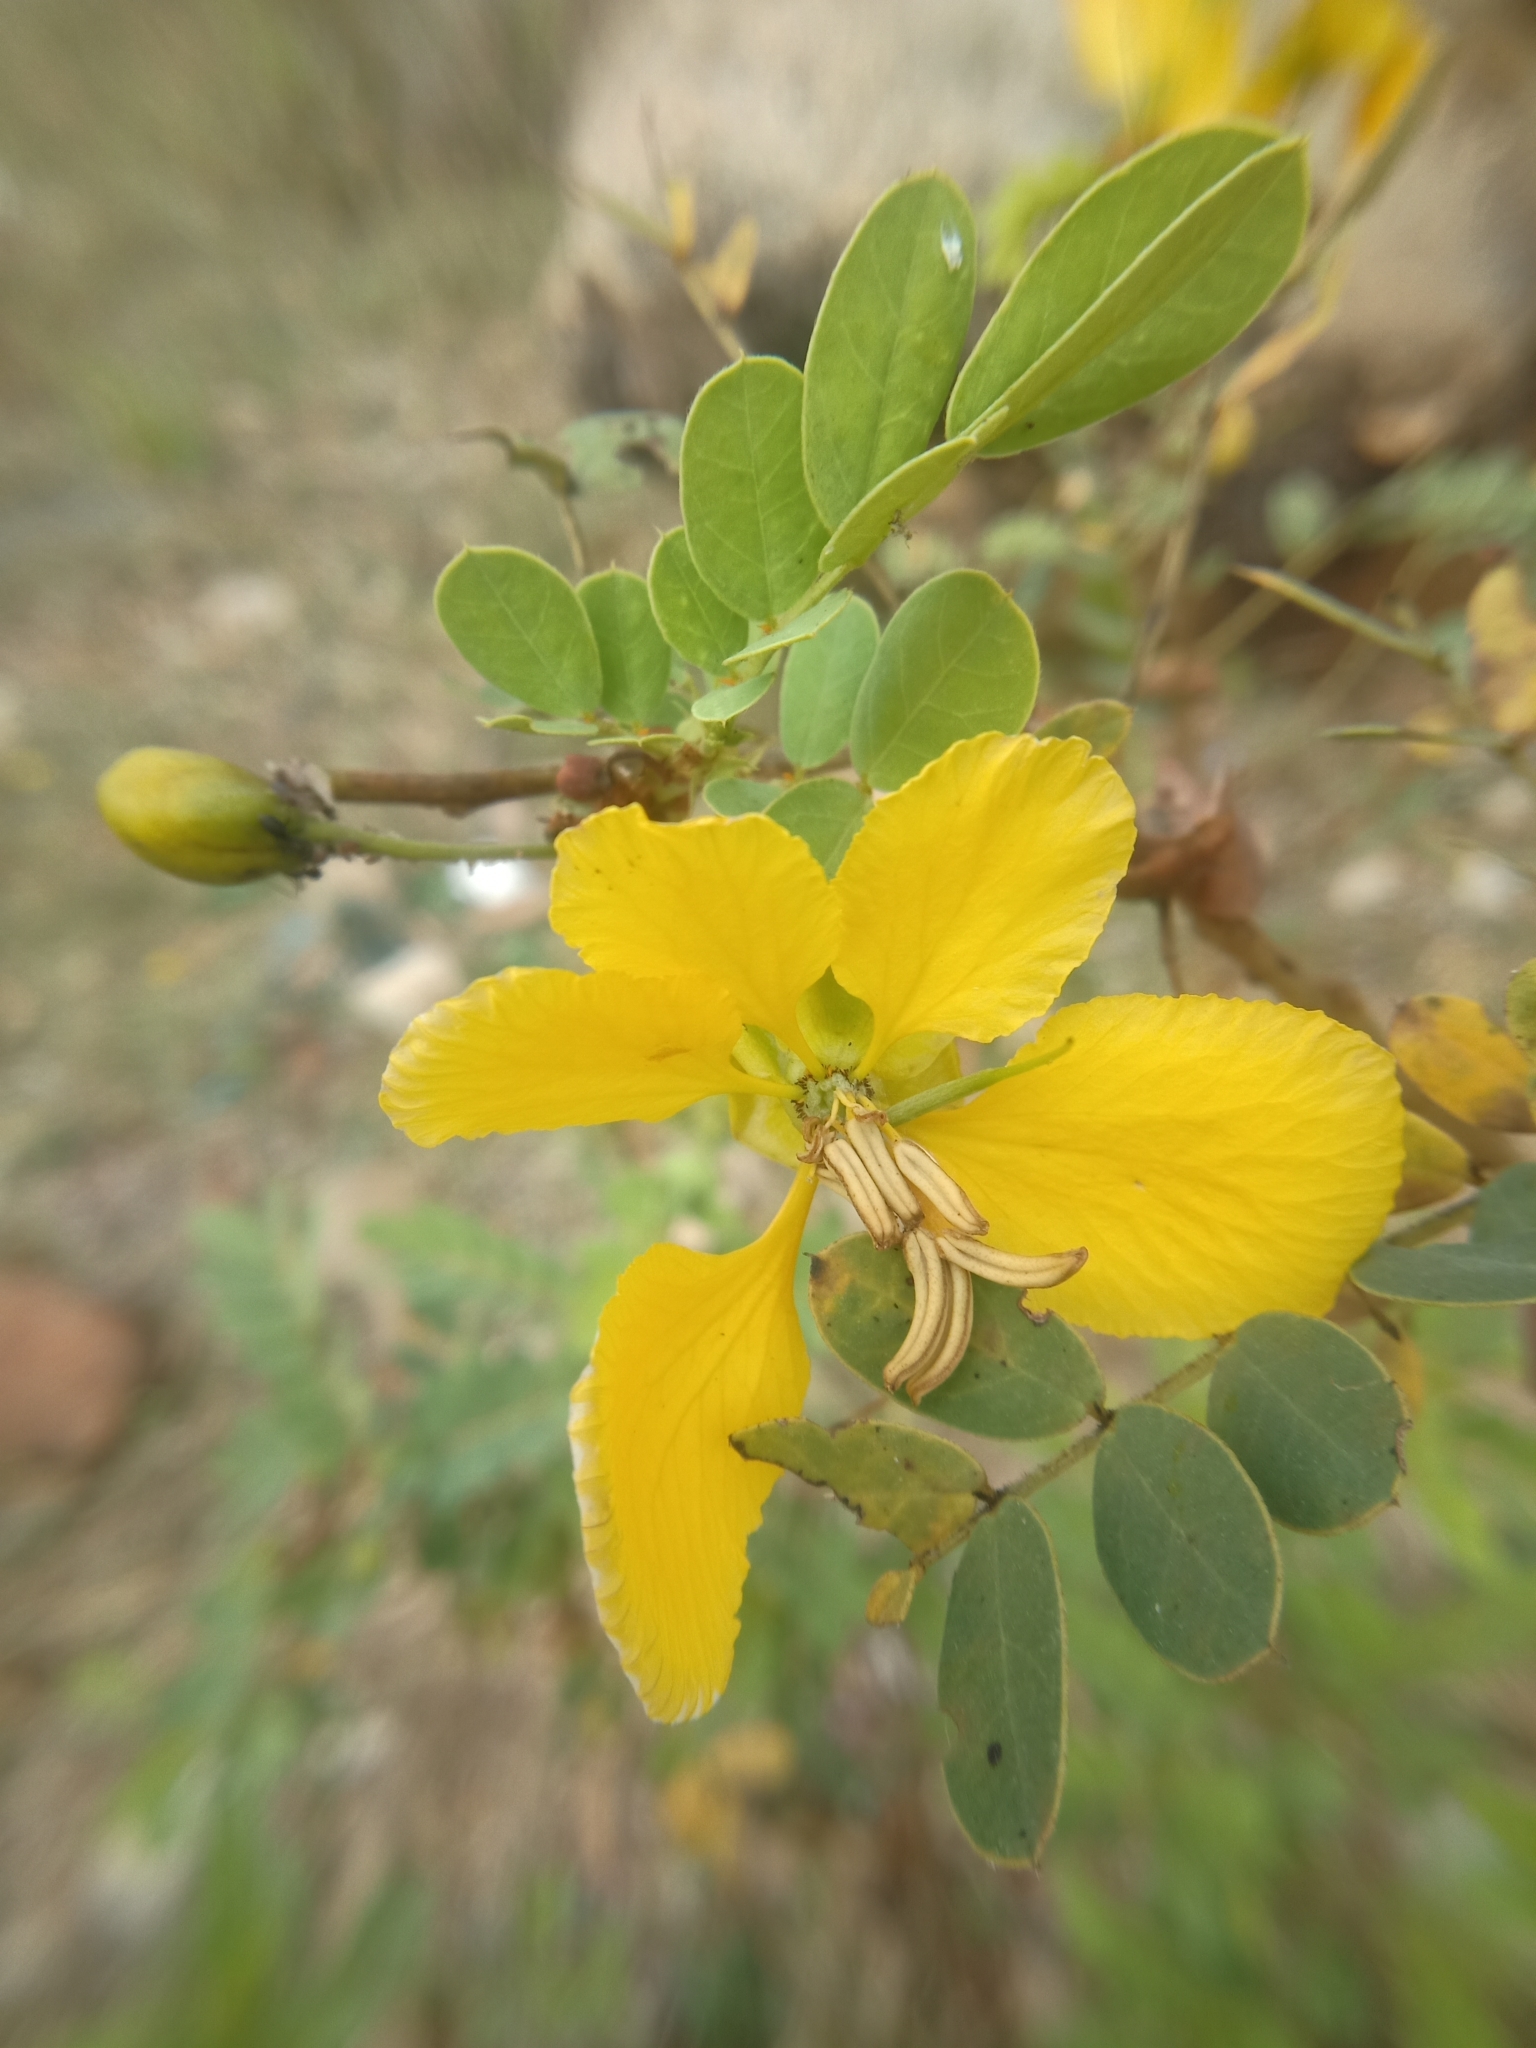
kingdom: Plantae
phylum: Tracheophyta
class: Magnoliopsida
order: Fabales
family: Fabaceae
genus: Senna
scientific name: Senna auriculata
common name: Tanner's cassia
